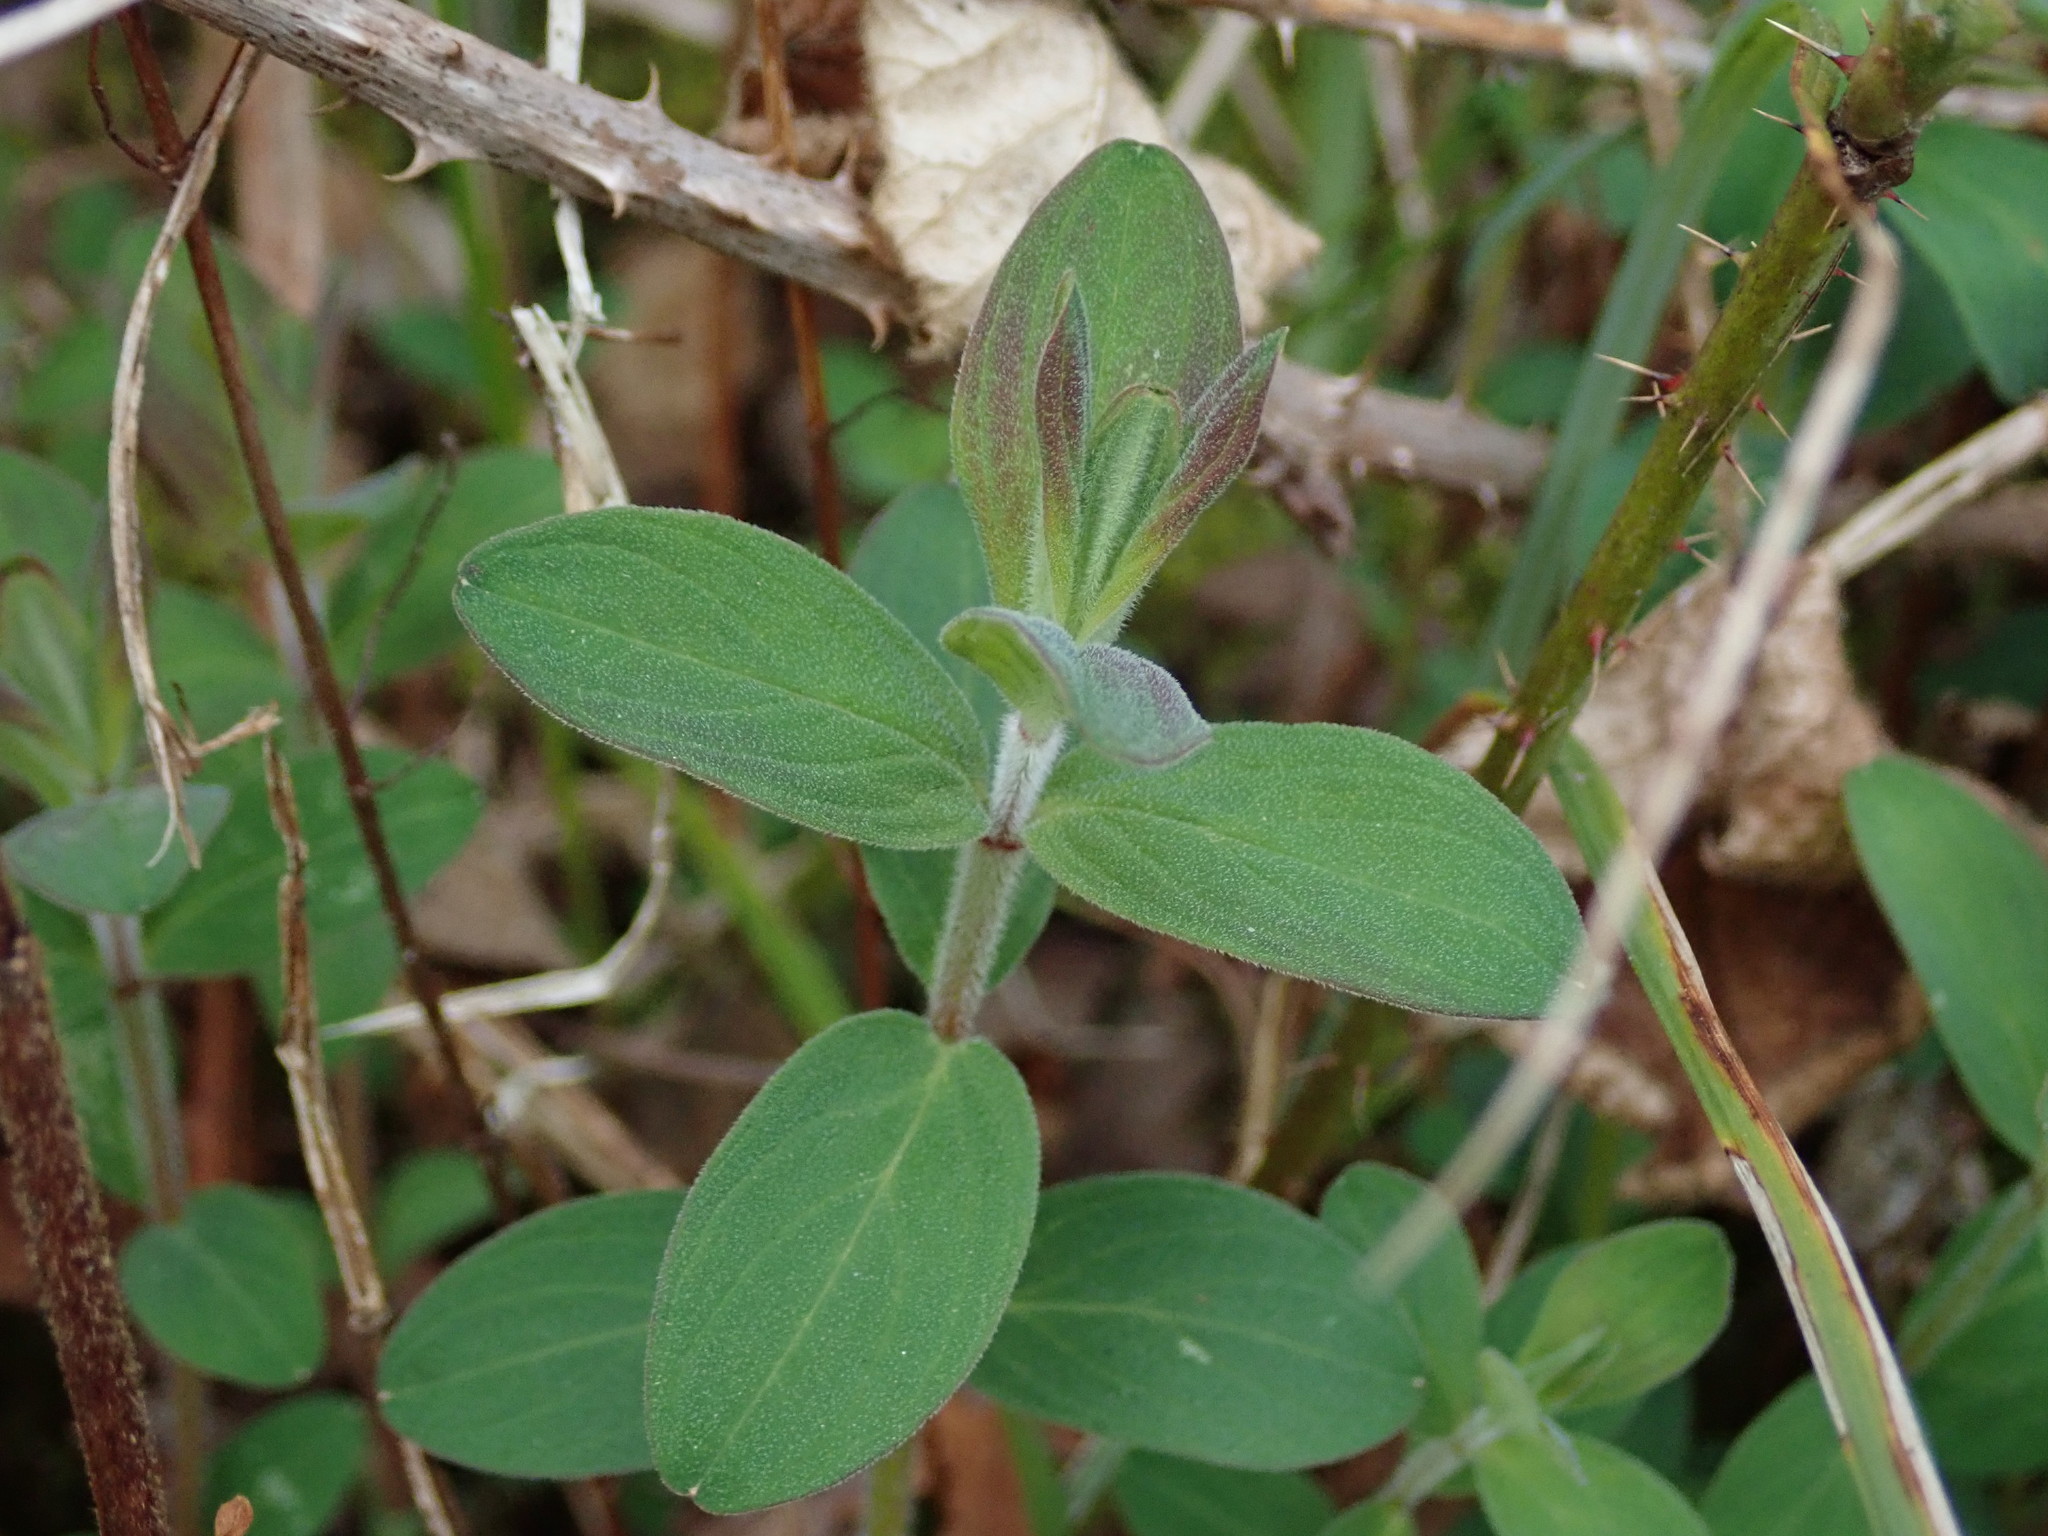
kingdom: Plantae
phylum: Tracheophyta
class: Magnoliopsida
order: Malpighiales
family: Hypericaceae
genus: Hypericum
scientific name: Hypericum hirsutum
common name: Hairy st. john's-wort
